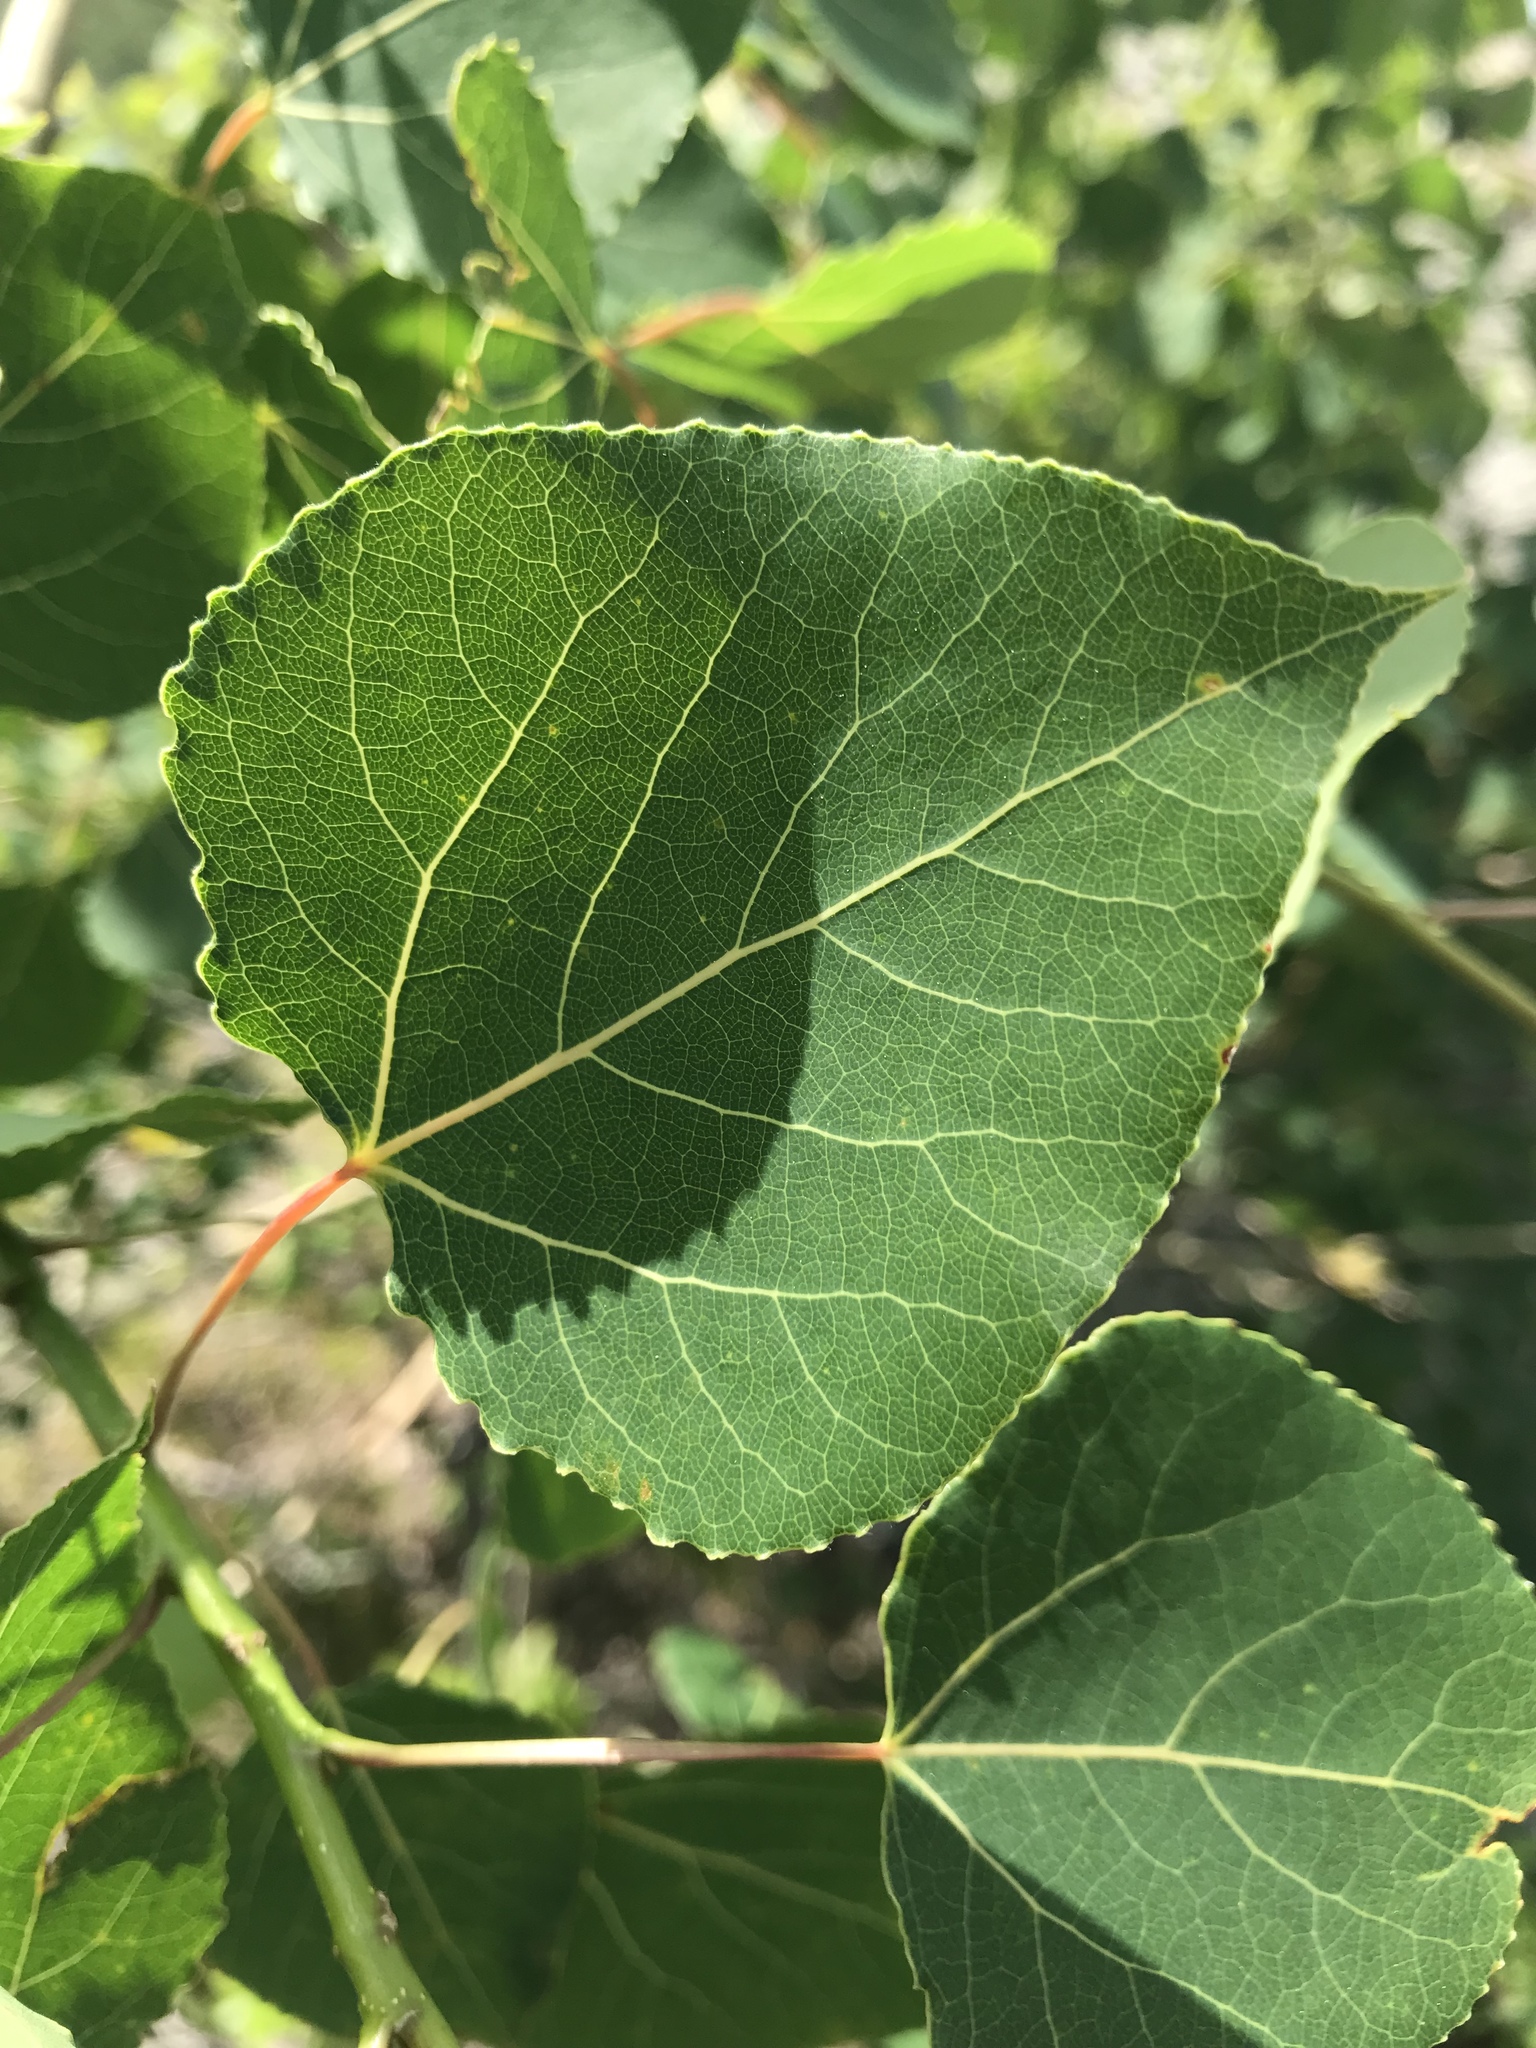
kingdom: Plantae
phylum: Tracheophyta
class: Magnoliopsida
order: Malpighiales
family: Salicaceae
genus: Populus
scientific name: Populus tremuloides
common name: Quaking aspen
